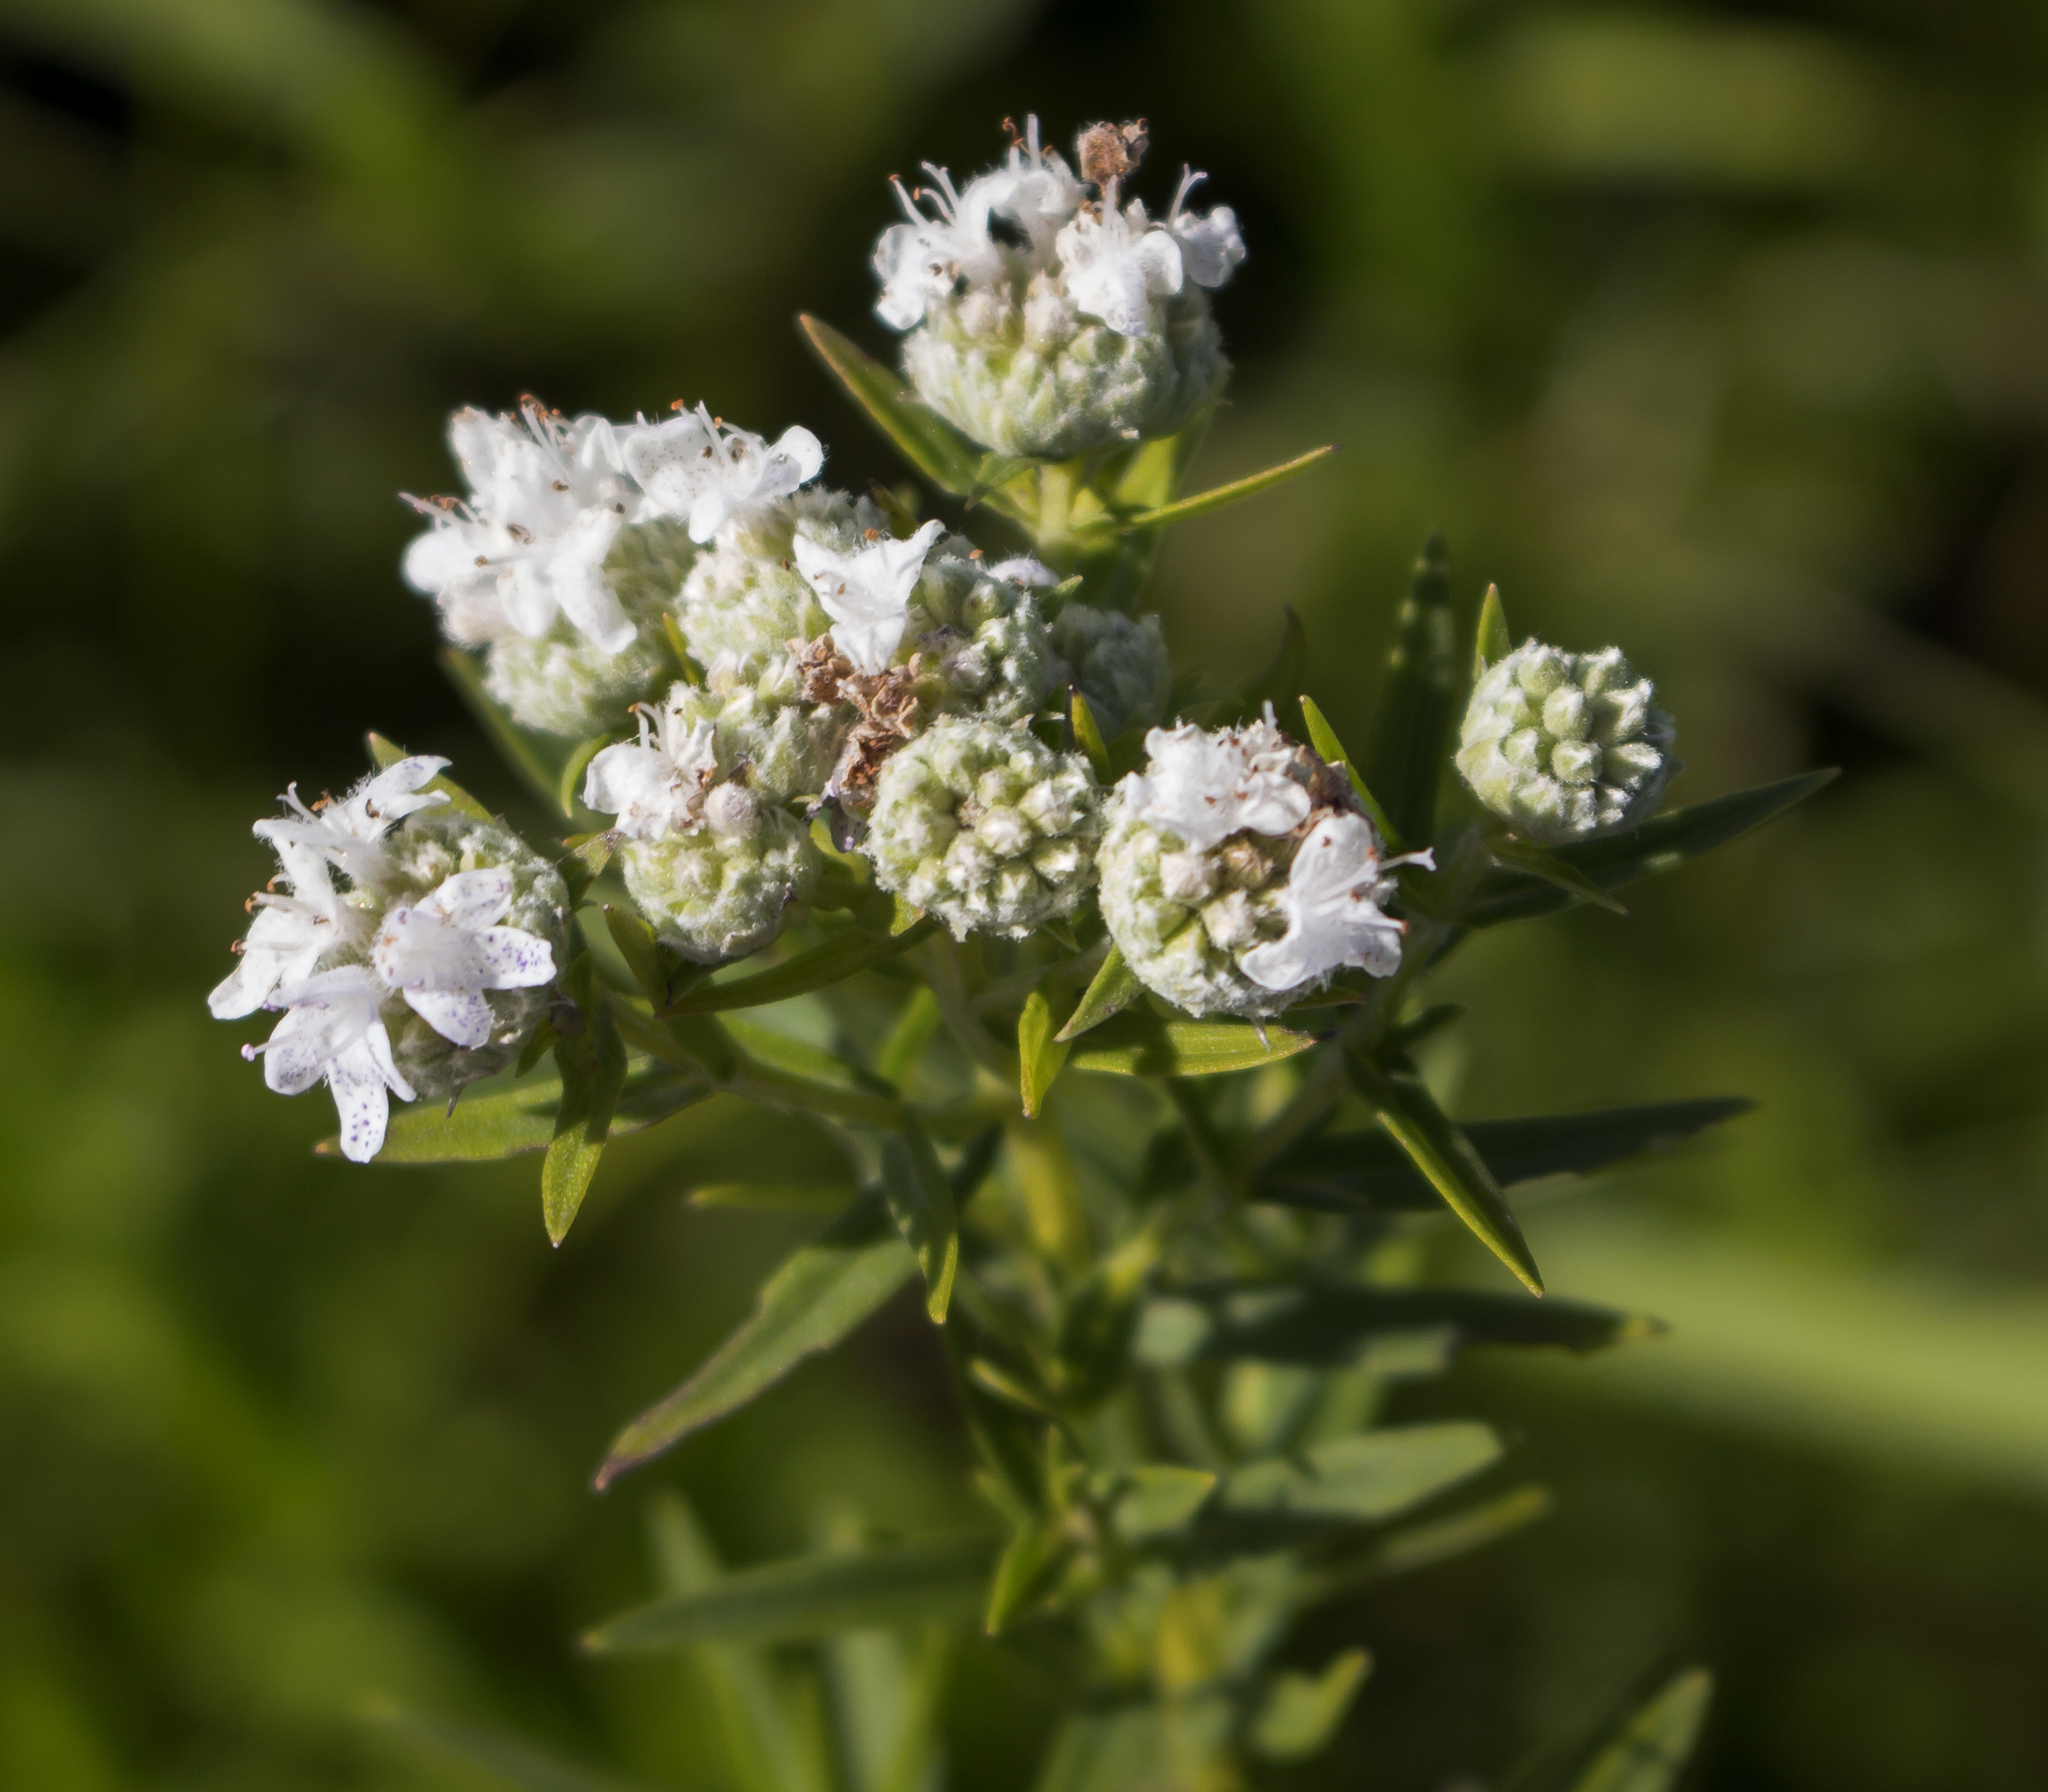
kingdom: Plantae
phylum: Tracheophyta
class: Magnoliopsida
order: Lamiales
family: Lamiaceae
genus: Pycnanthemum
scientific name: Pycnanthemum virginianum
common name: Virginia mountain-mint
